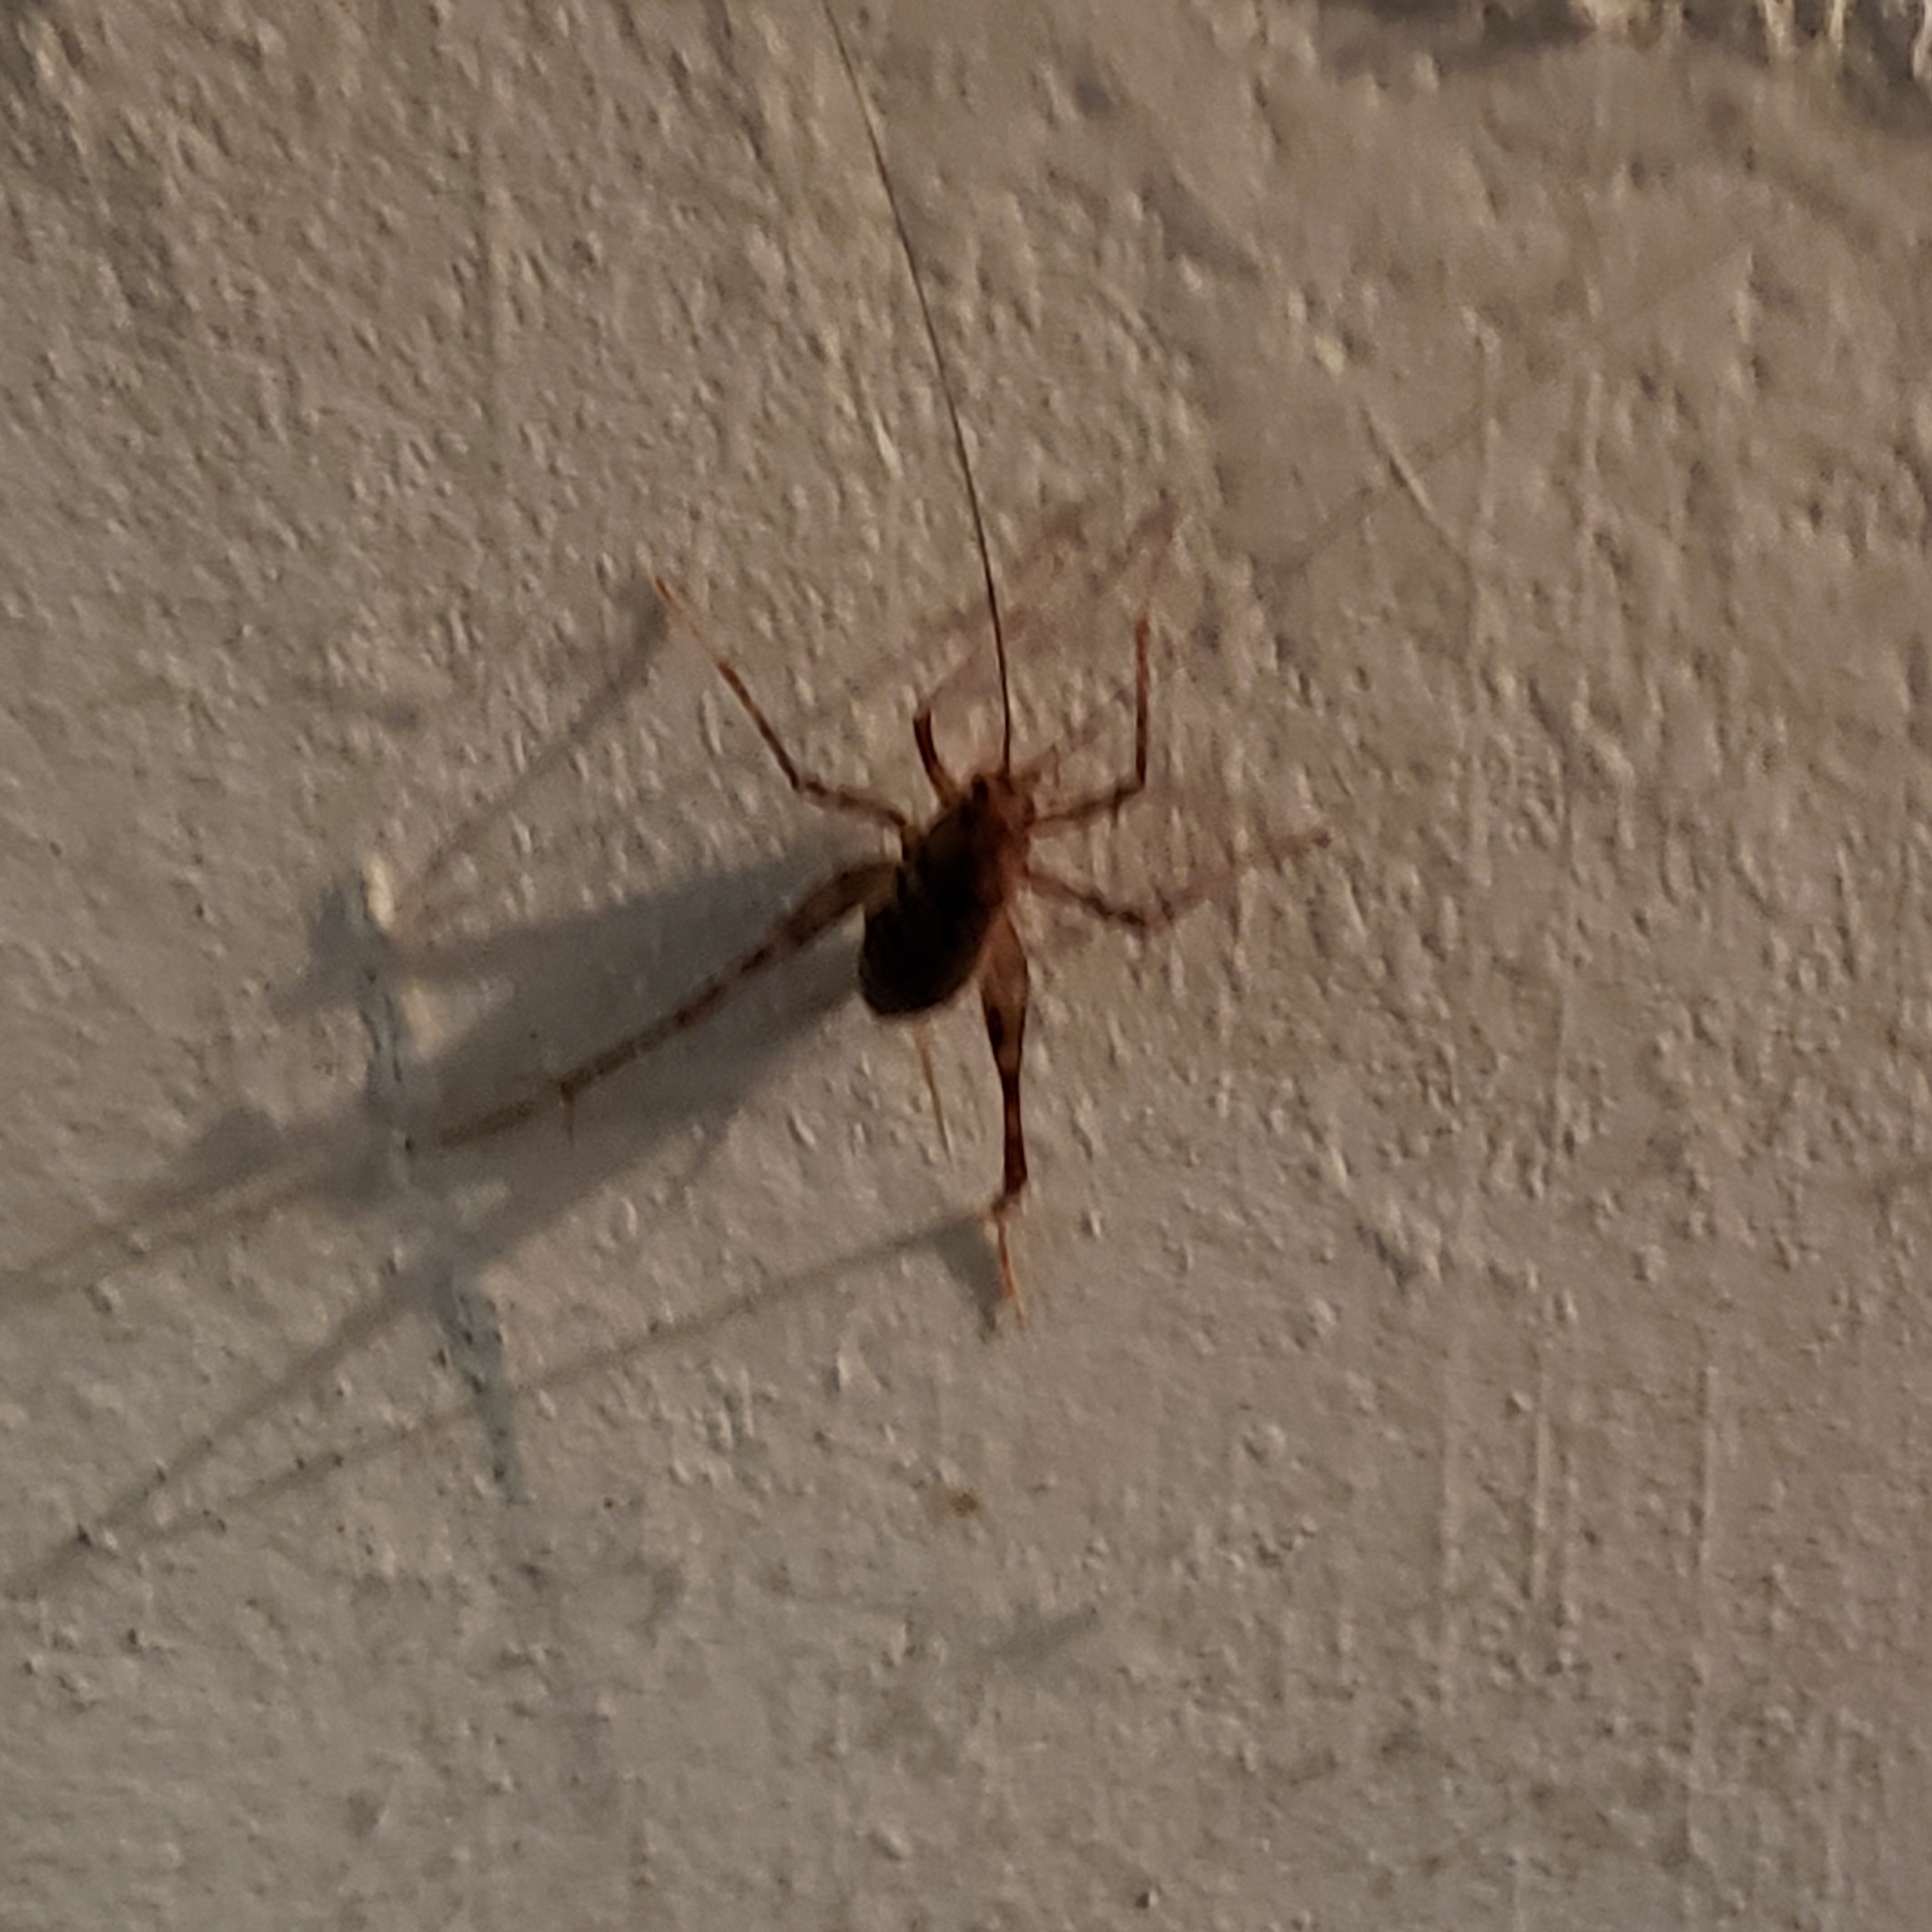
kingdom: Animalia
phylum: Arthropoda
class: Insecta
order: Orthoptera
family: Rhaphidophoridae
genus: Tachycines
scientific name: Tachycines asynamorus
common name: Greenhouse camel cricket
